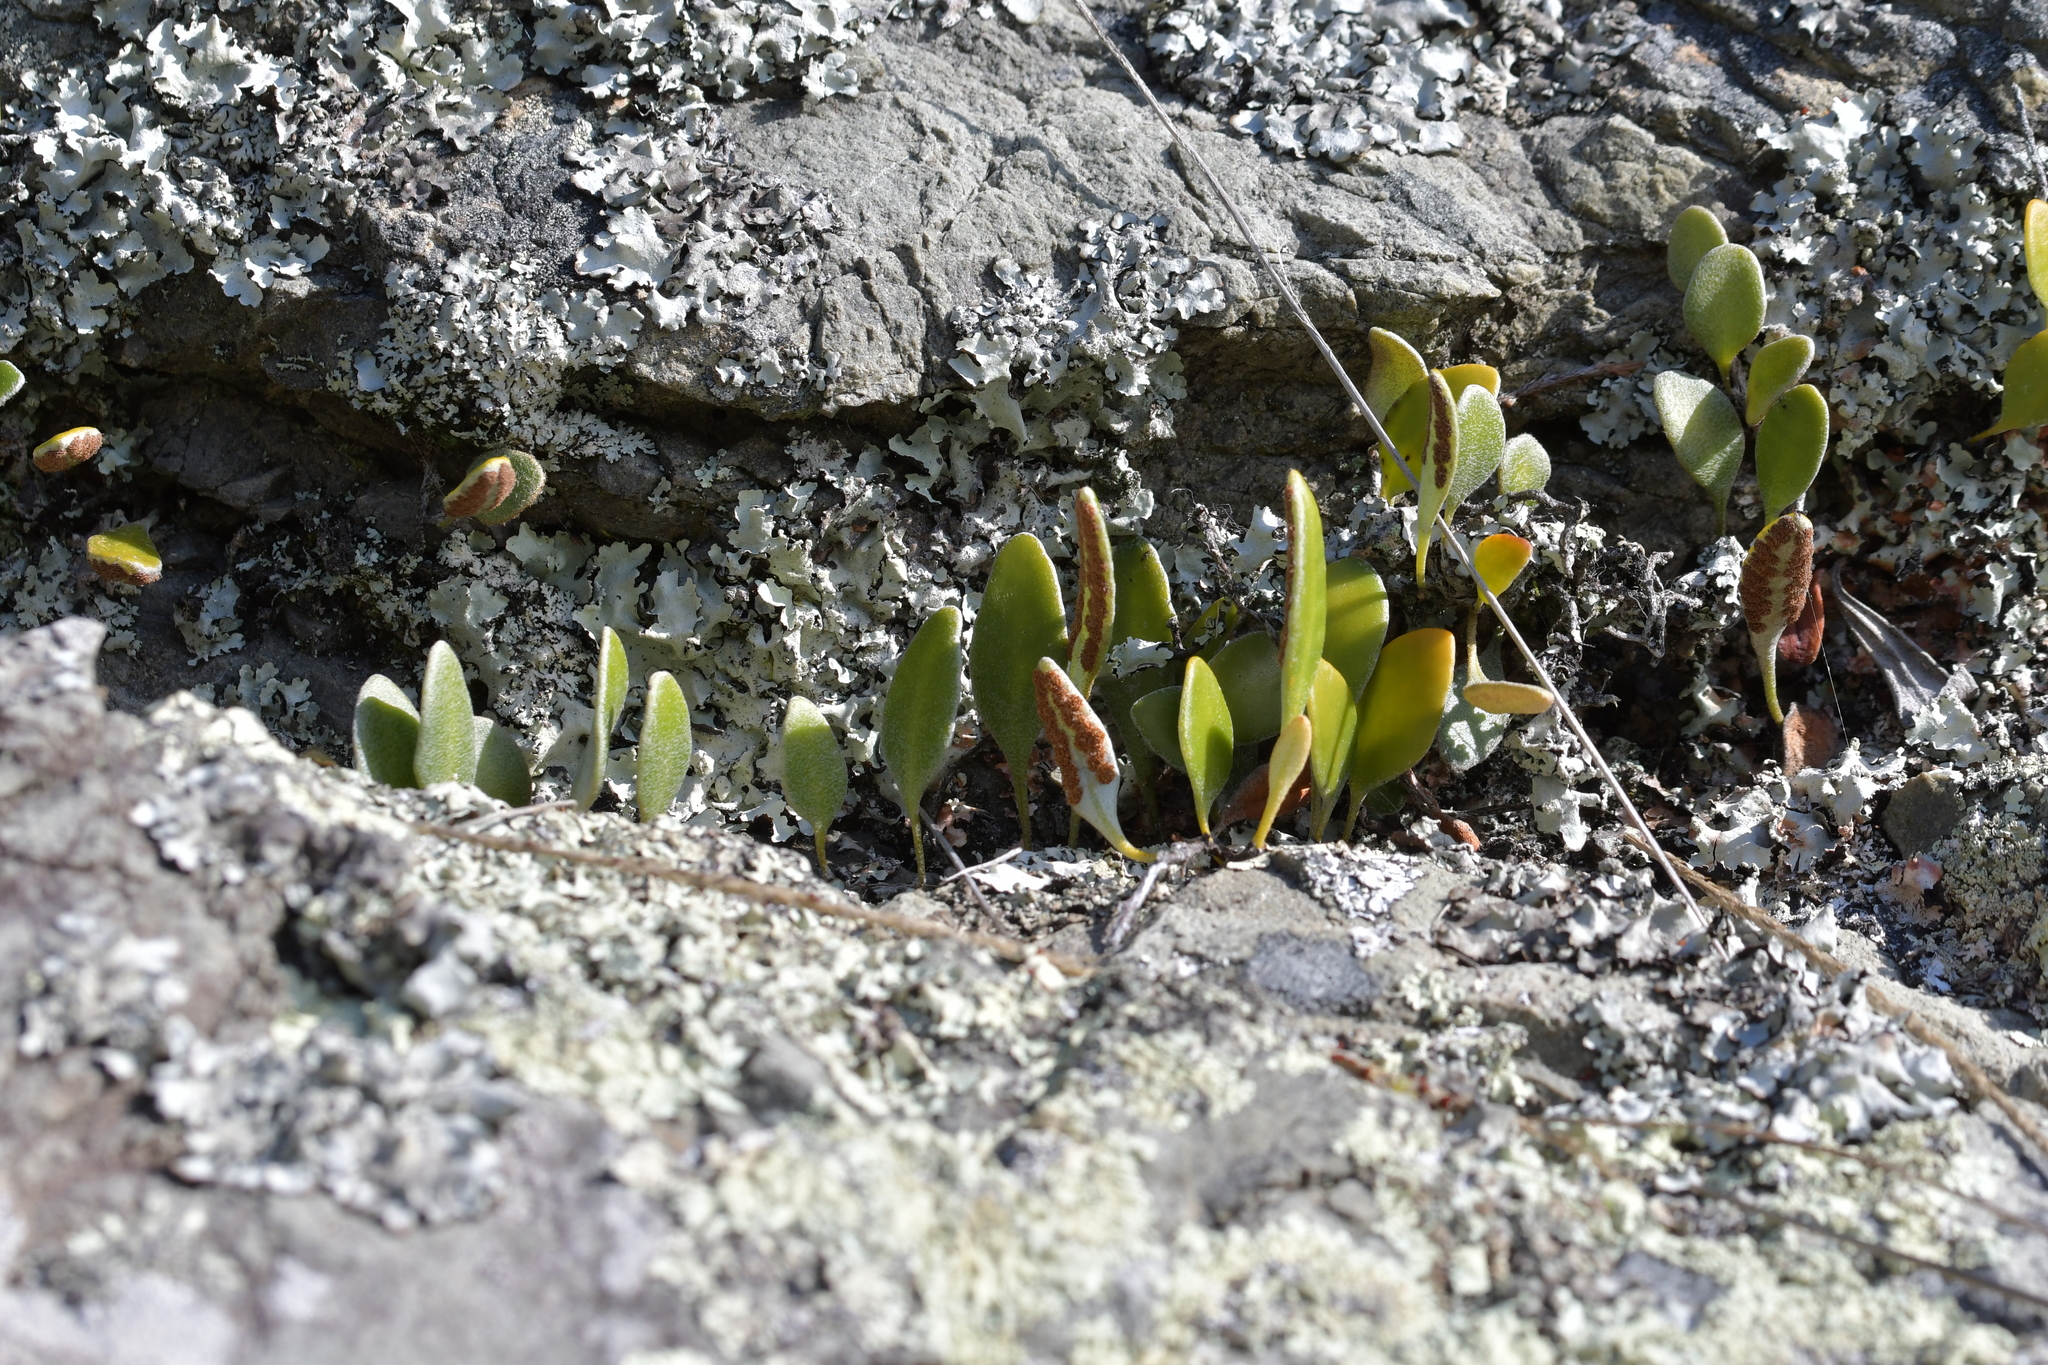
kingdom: Plantae
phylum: Tracheophyta
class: Polypodiopsida
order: Polypodiales
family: Polypodiaceae
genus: Pyrrosia
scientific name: Pyrrosia eleagnifolia
